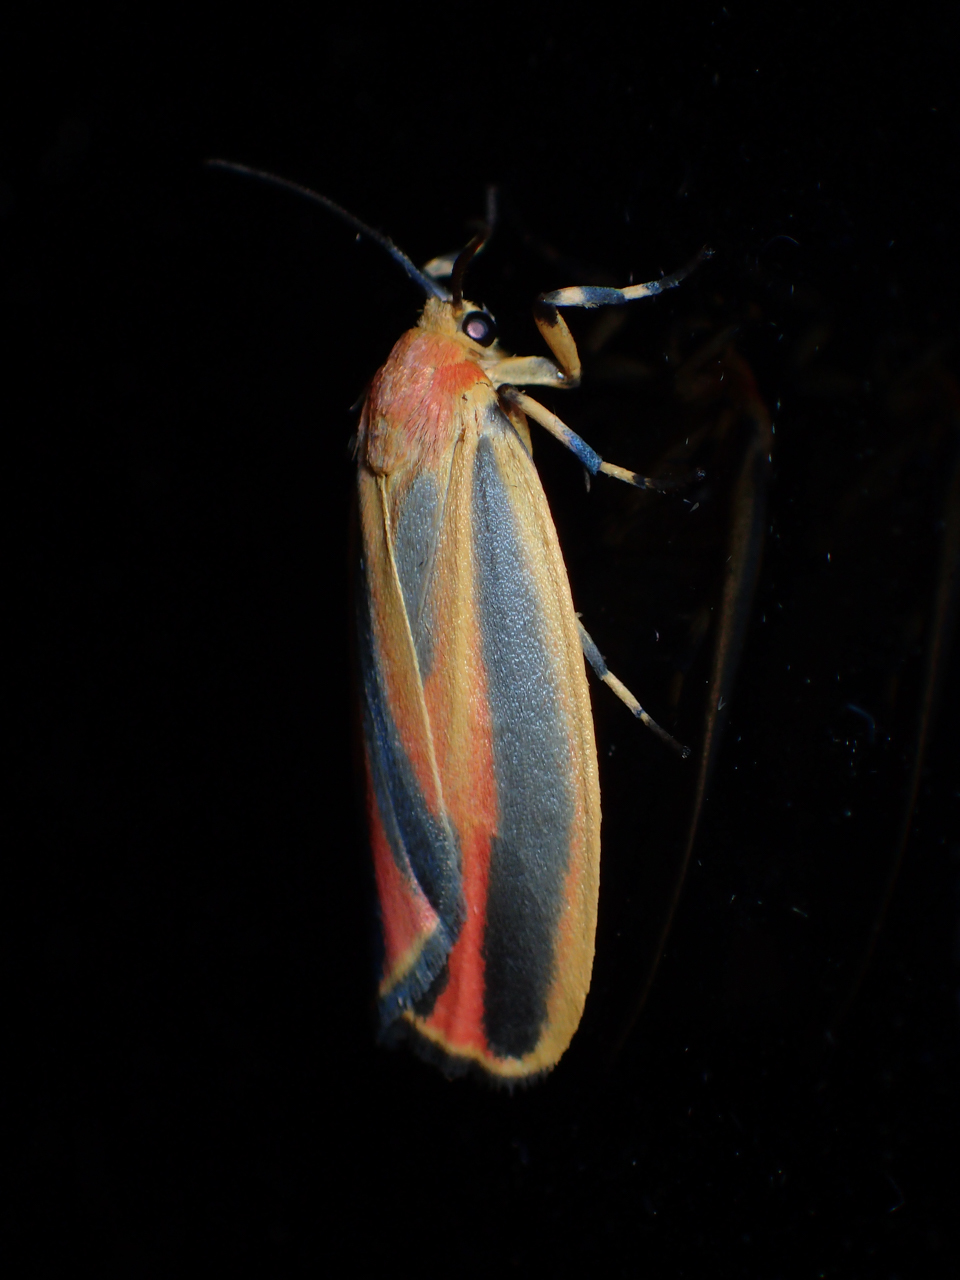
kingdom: Animalia
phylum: Arthropoda
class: Insecta
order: Lepidoptera
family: Erebidae
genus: Hypoprepia
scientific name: Hypoprepia fucosa
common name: Painted lichen moth
